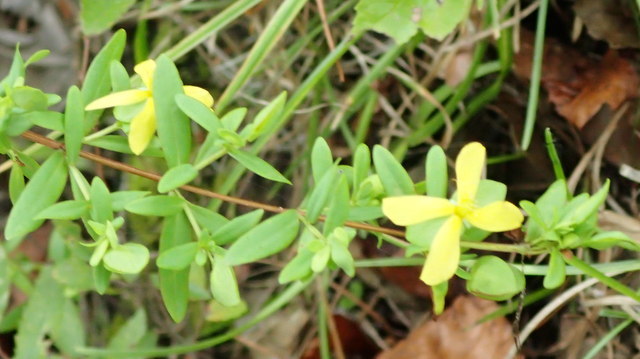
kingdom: Plantae
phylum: Tracheophyta
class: Magnoliopsida
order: Malpighiales
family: Hypericaceae
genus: Hypericum
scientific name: Hypericum hypericoides
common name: St. andrew's cross
